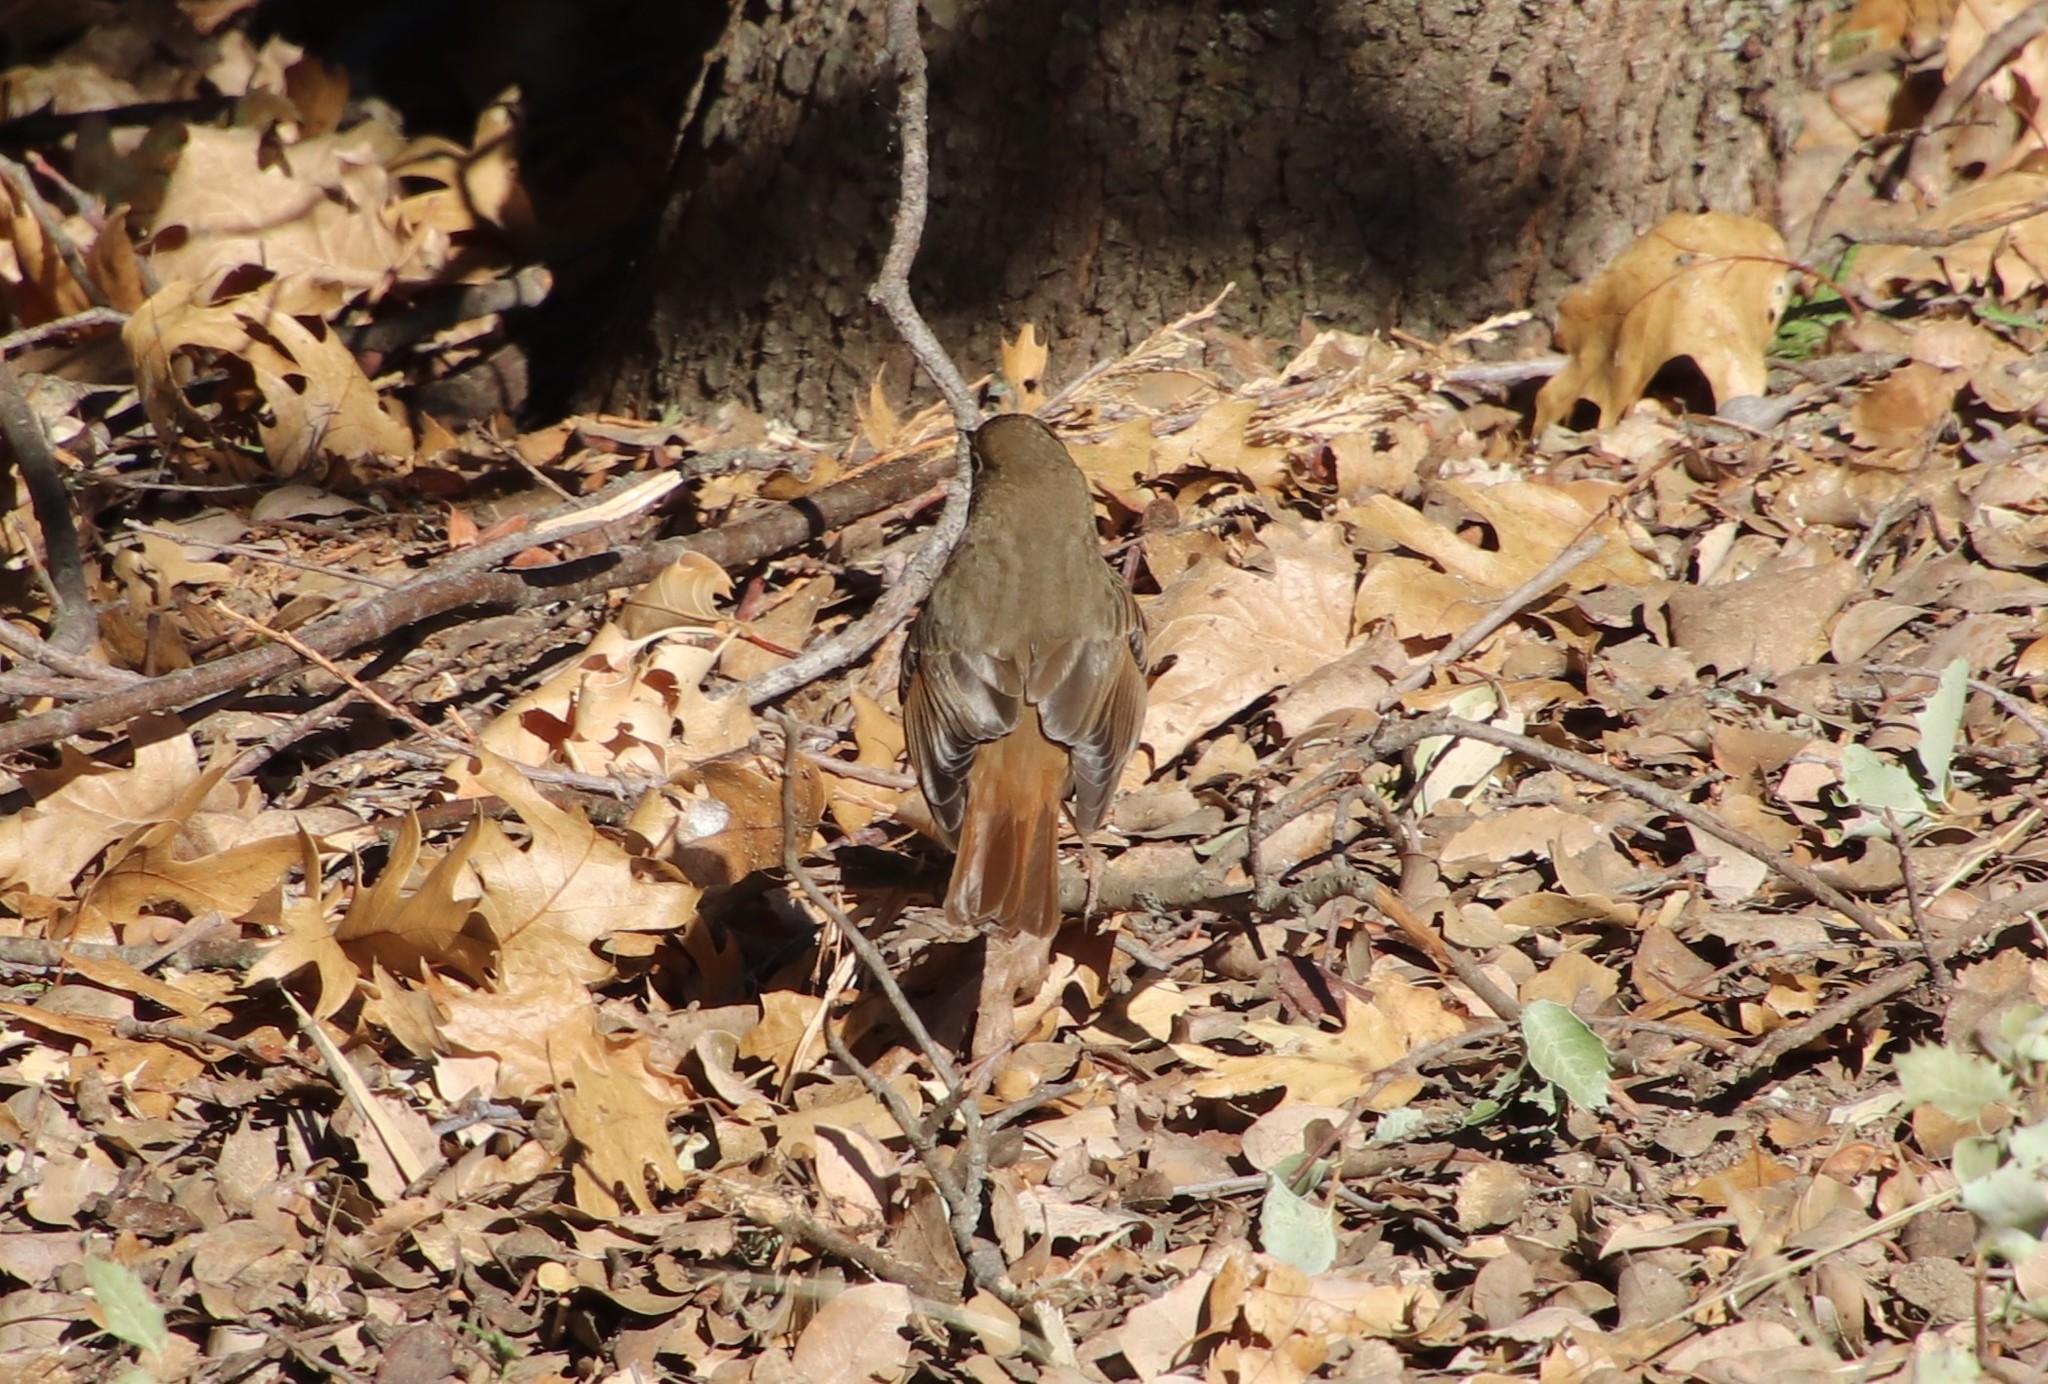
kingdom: Animalia
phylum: Chordata
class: Aves
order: Passeriformes
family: Turdidae
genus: Catharus
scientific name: Catharus guttatus
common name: Hermit thrush
